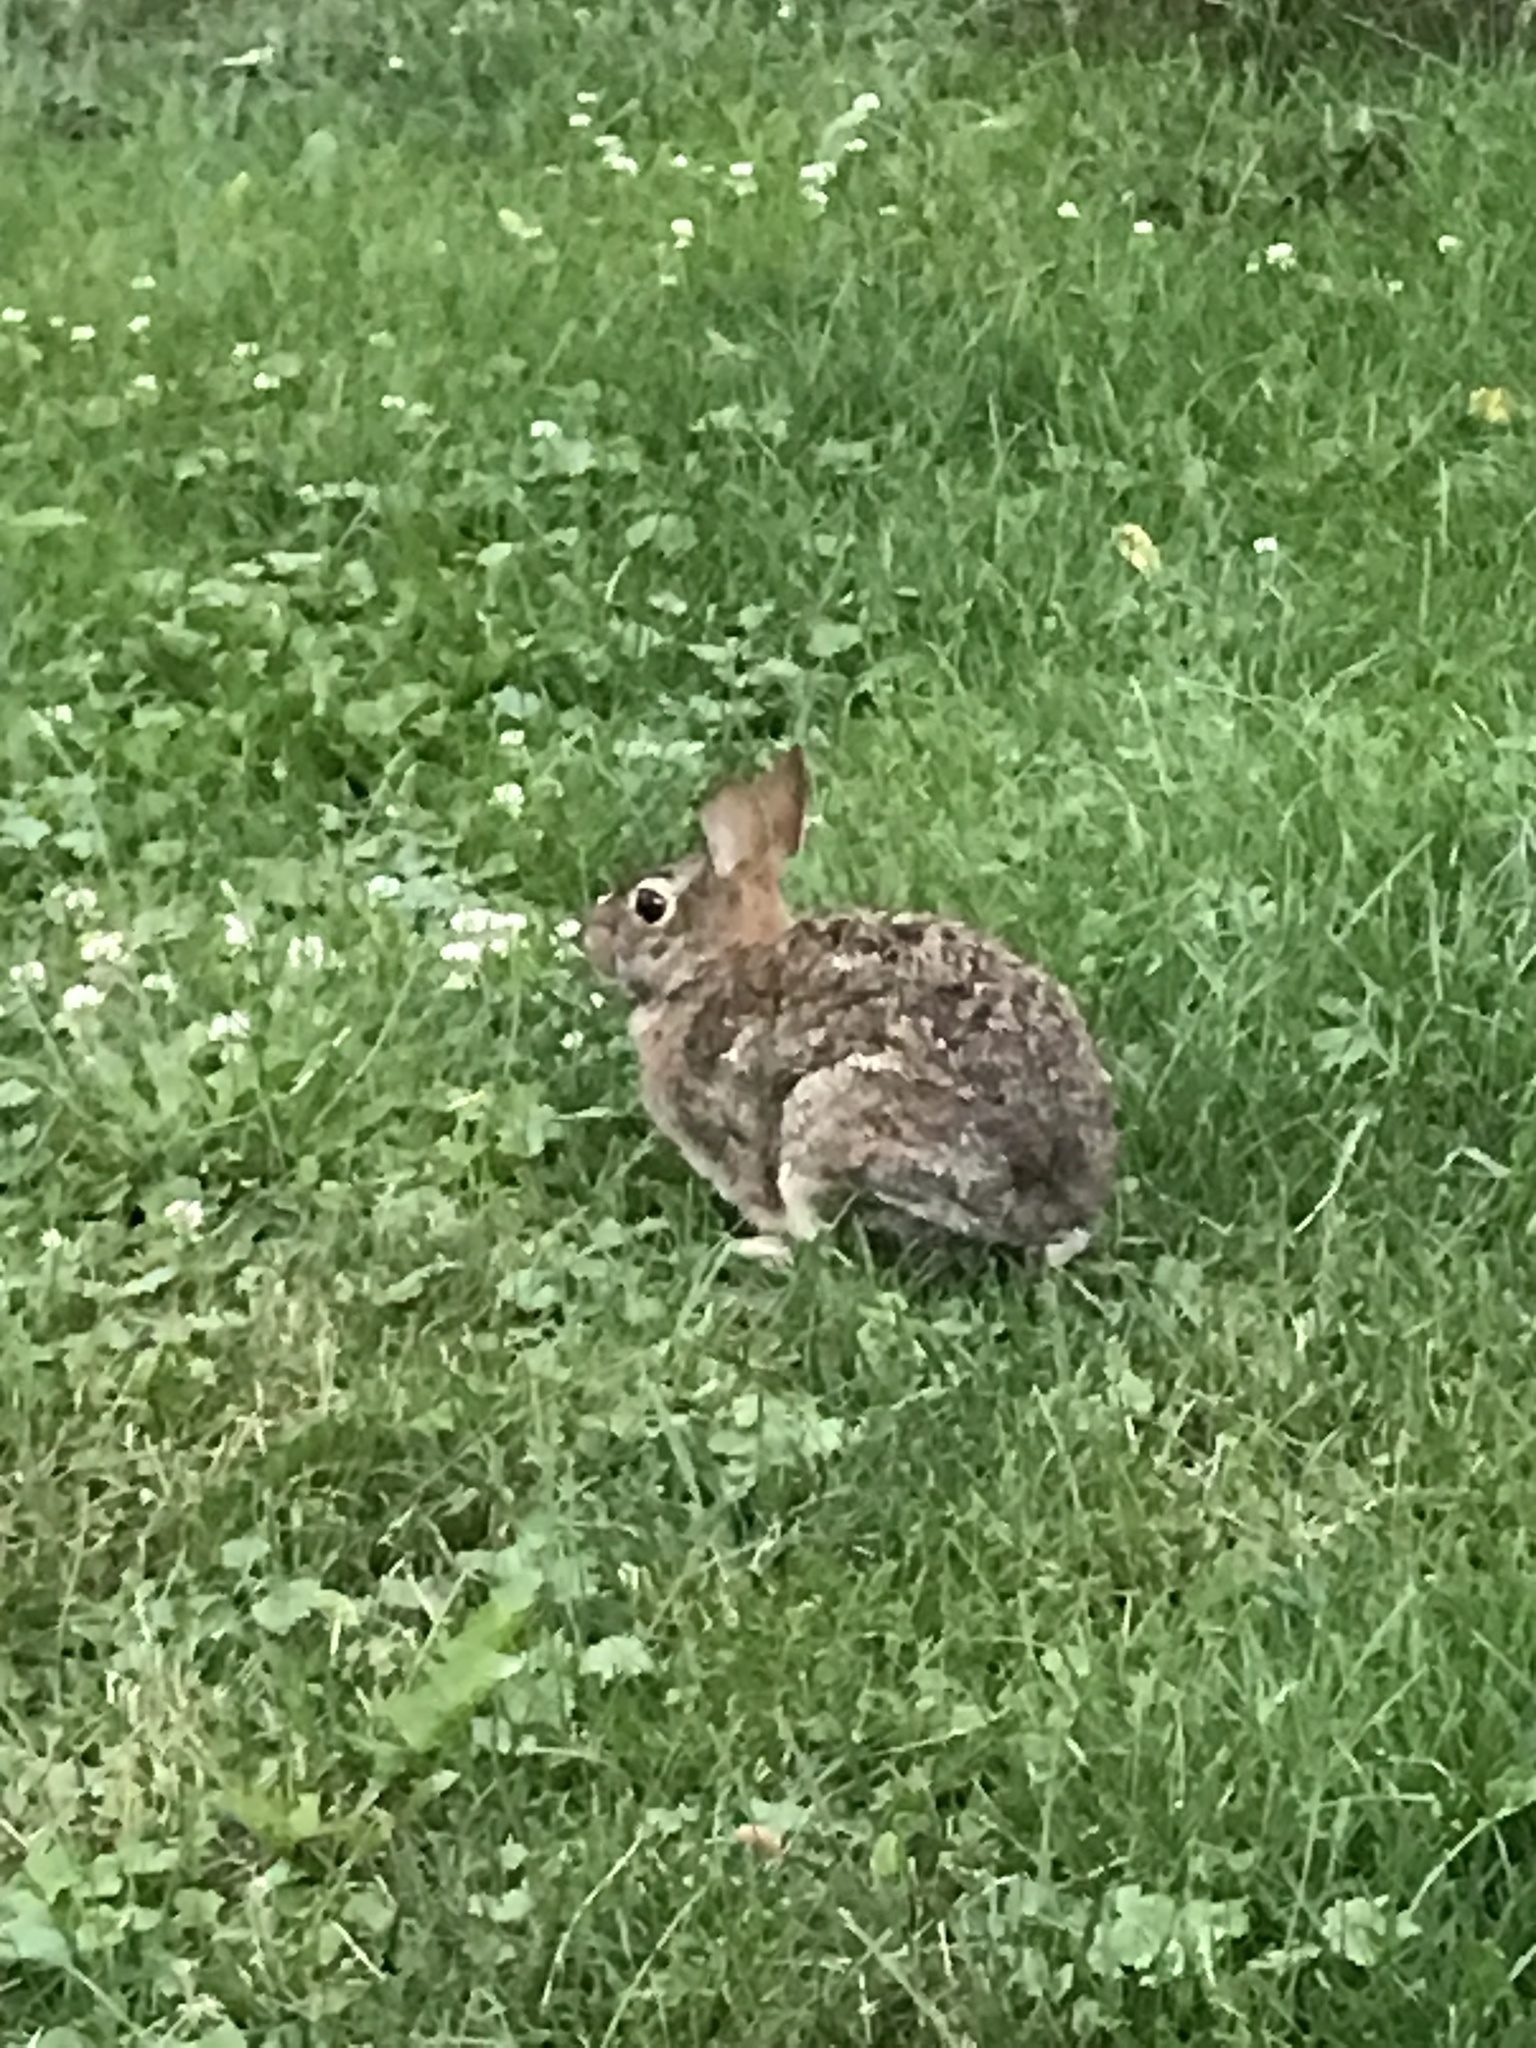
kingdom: Animalia
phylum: Chordata
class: Mammalia
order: Lagomorpha
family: Leporidae
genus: Sylvilagus
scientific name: Sylvilagus floridanus
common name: Eastern cottontail
